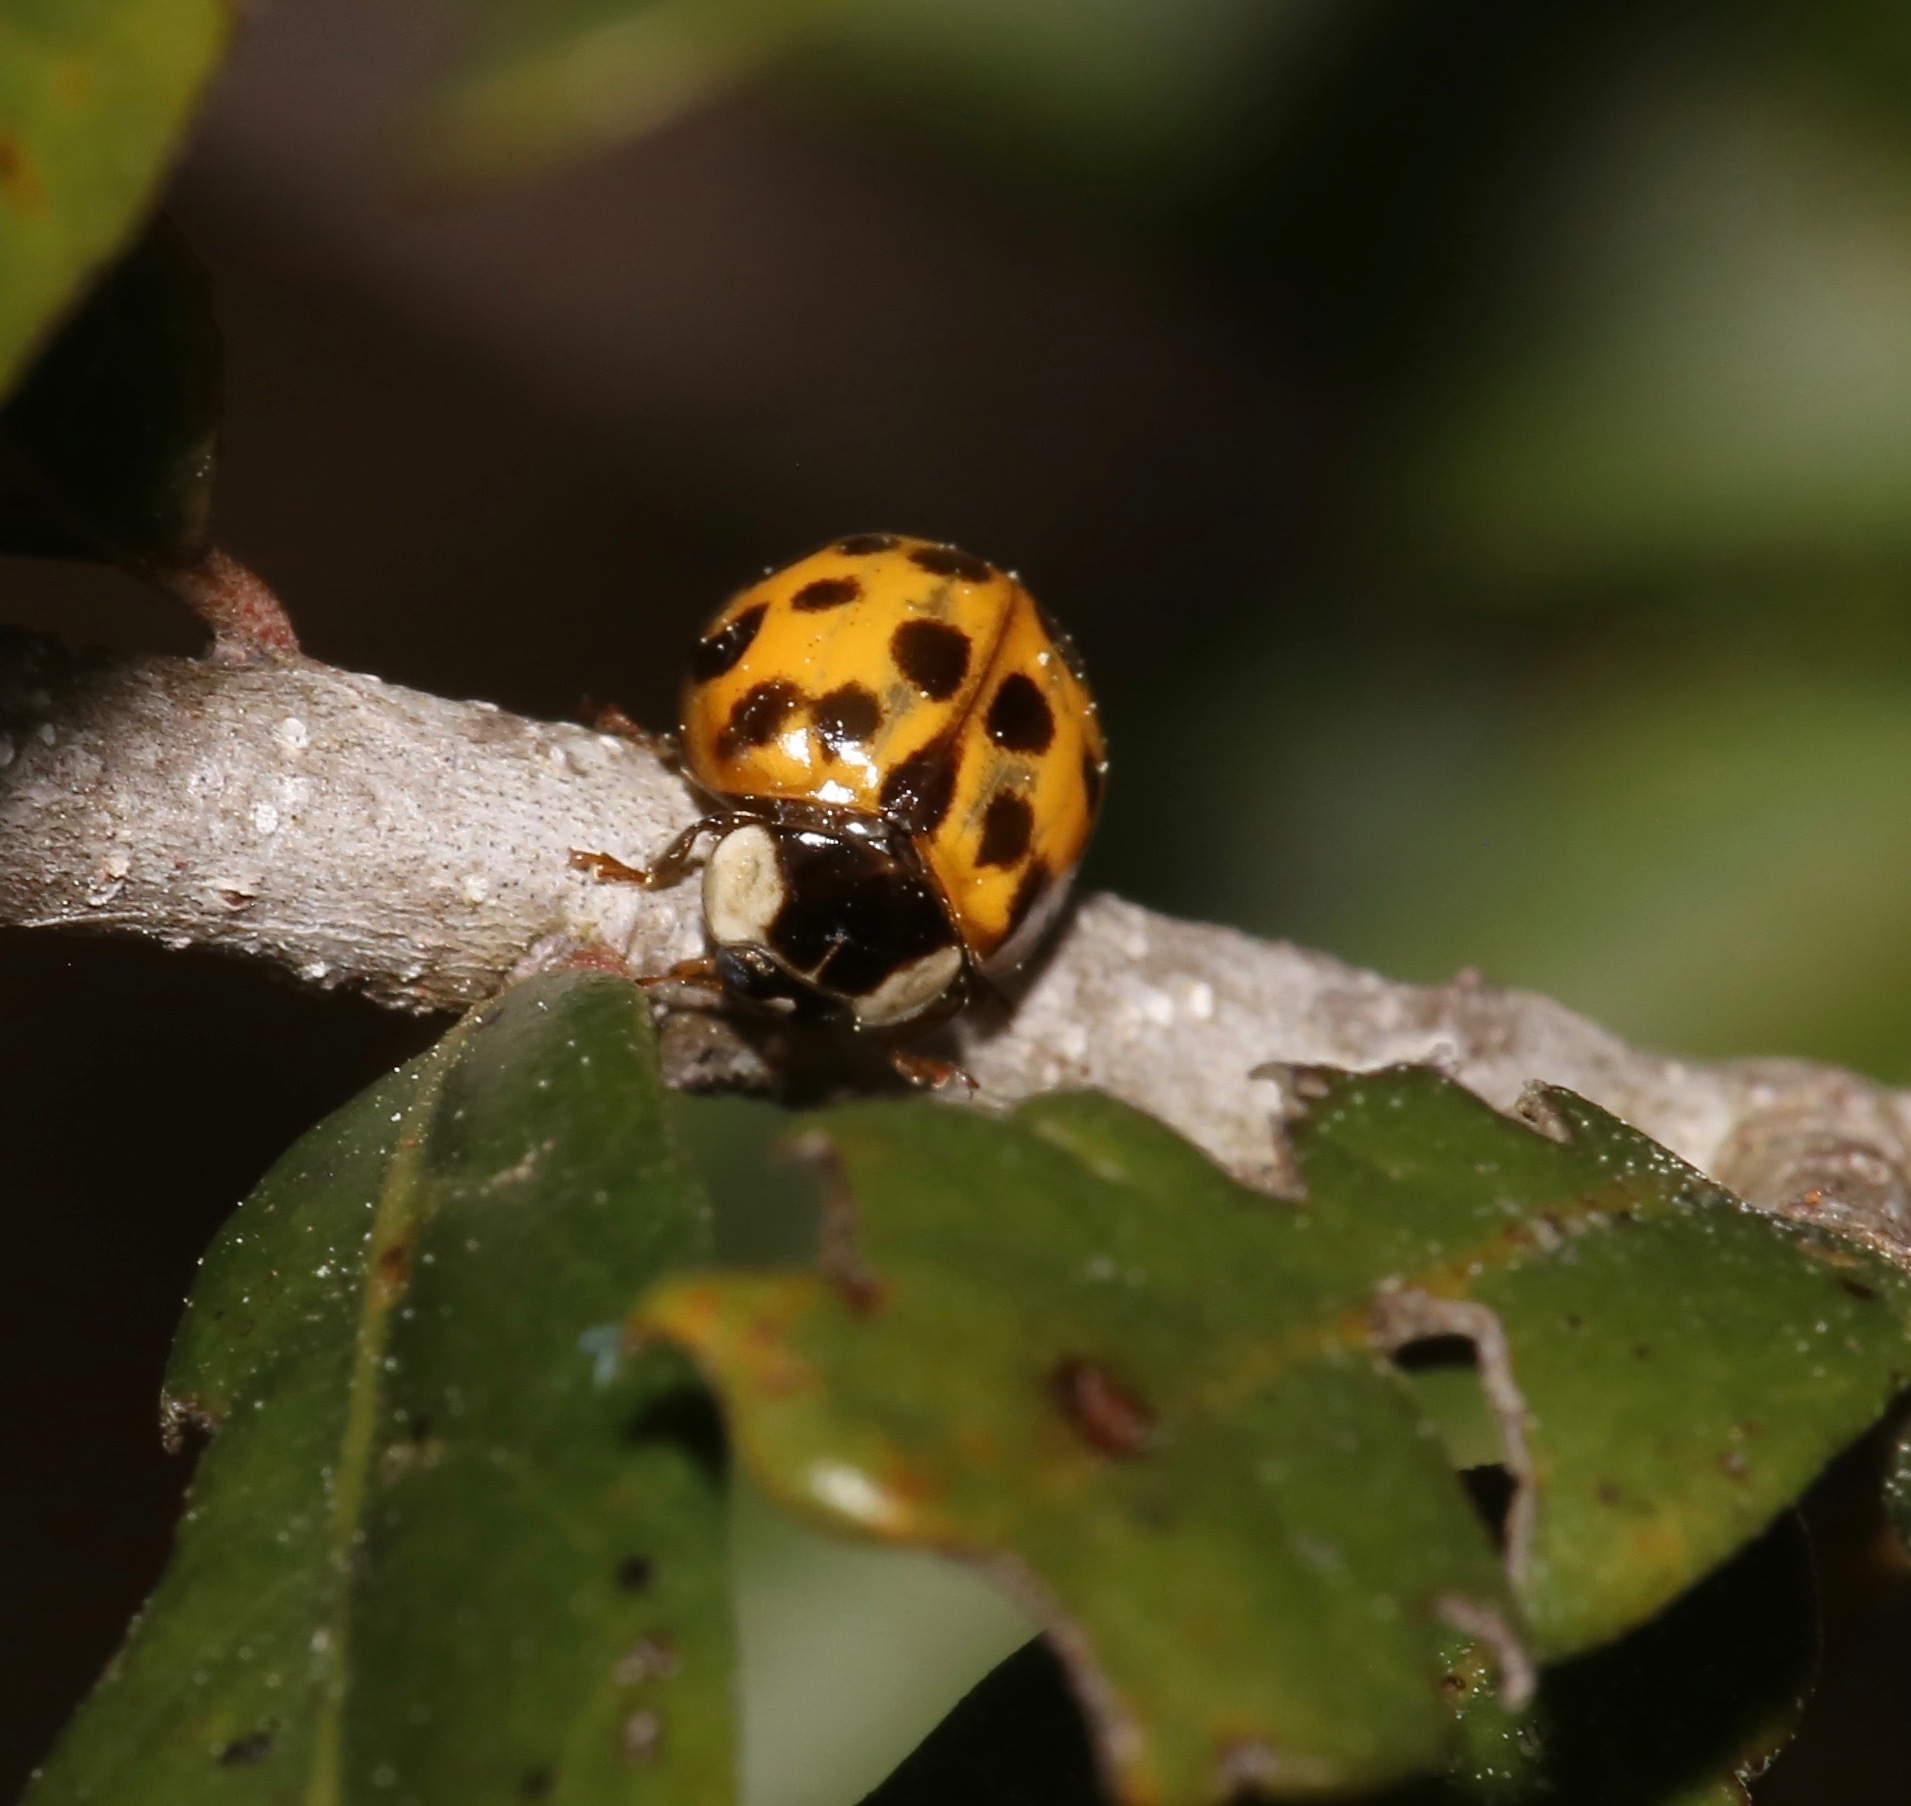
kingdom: Animalia
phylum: Arthropoda
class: Insecta
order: Coleoptera
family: Coccinellidae
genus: Harmonia
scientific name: Harmonia axyridis
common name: Harlequin ladybird
